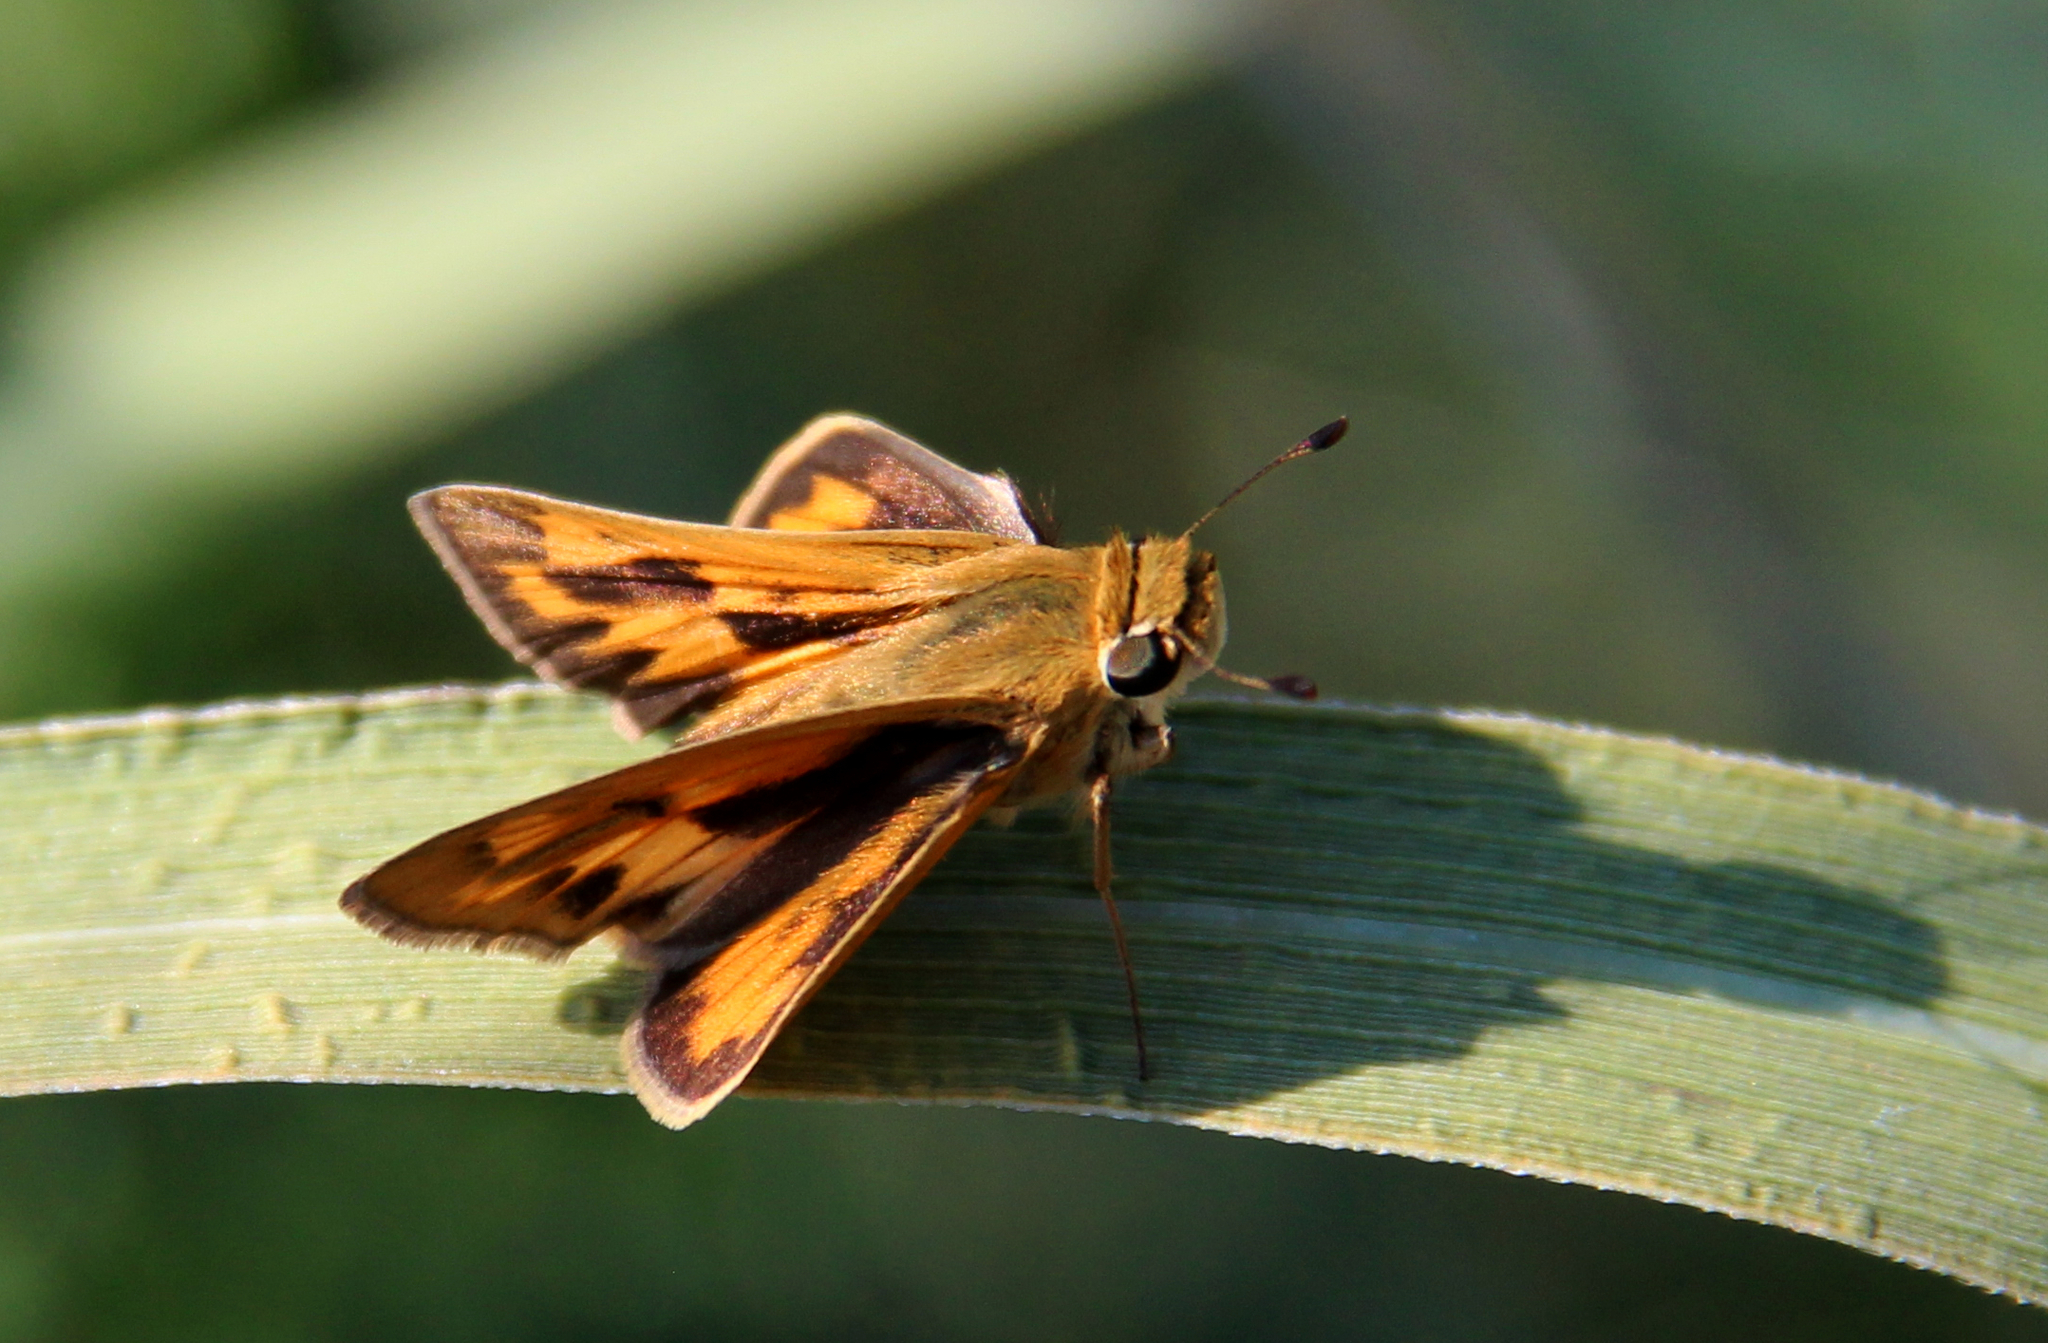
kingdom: Animalia
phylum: Arthropoda
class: Insecta
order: Lepidoptera
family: Hesperiidae
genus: Hylephila
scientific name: Hylephila phyleus
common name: Fiery skipper
